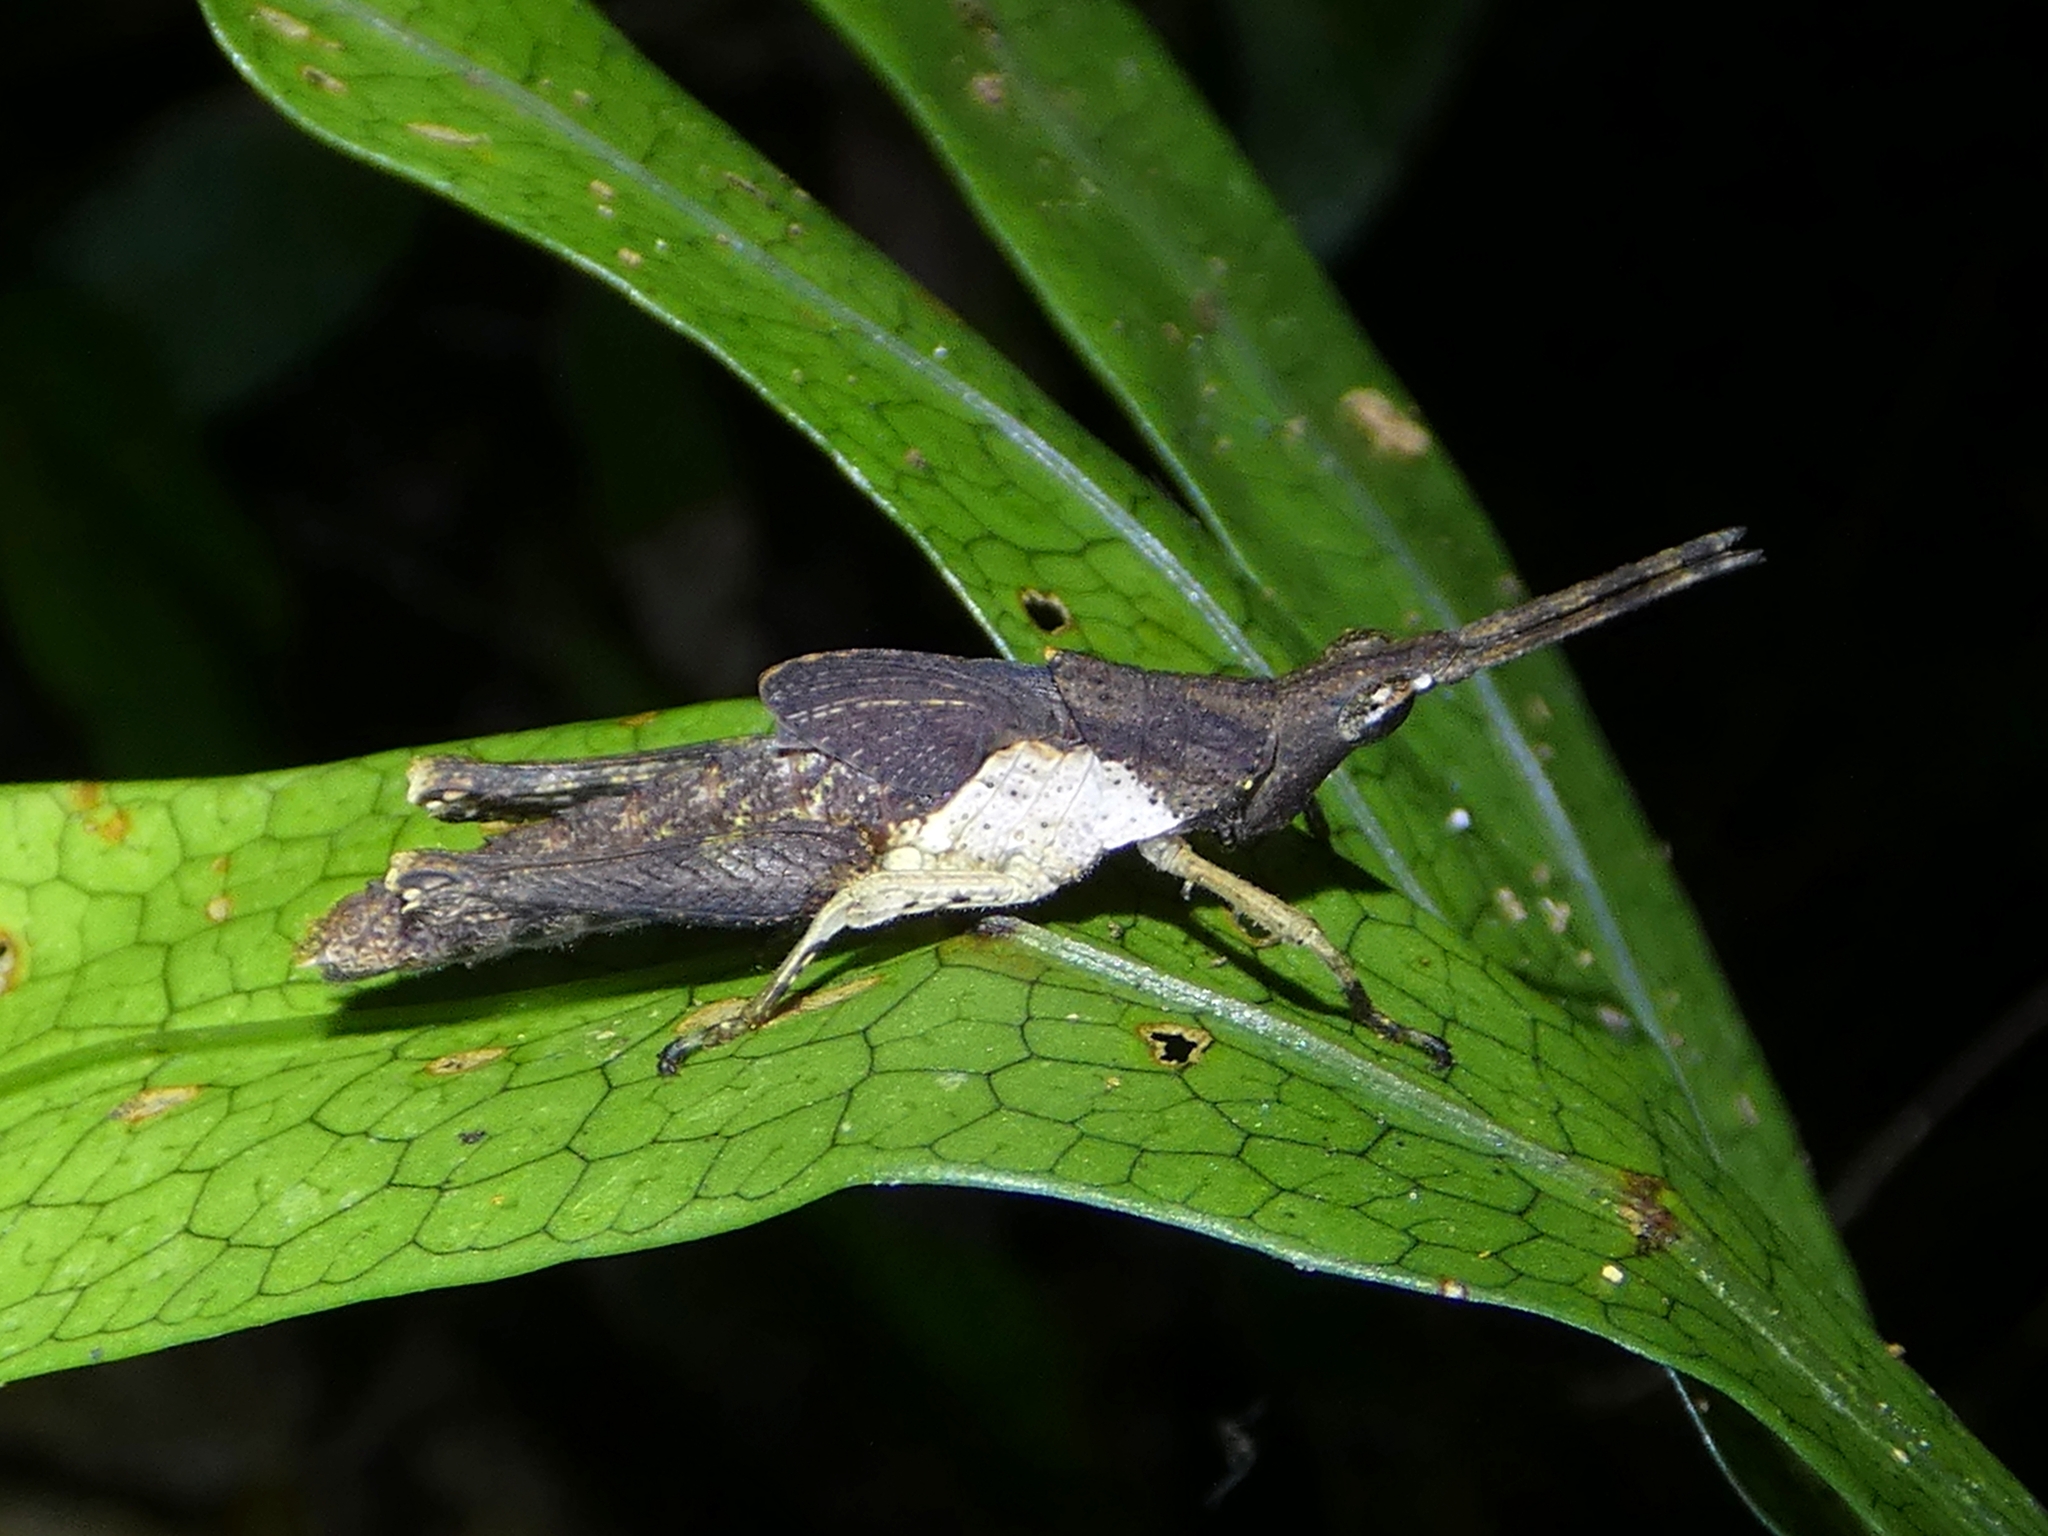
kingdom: Animalia
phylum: Arthropoda
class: Insecta
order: Orthoptera
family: Pyrgomorphidae
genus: Desmoptera
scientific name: Desmoptera truncatipennis
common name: Large forest pyrgomorph
